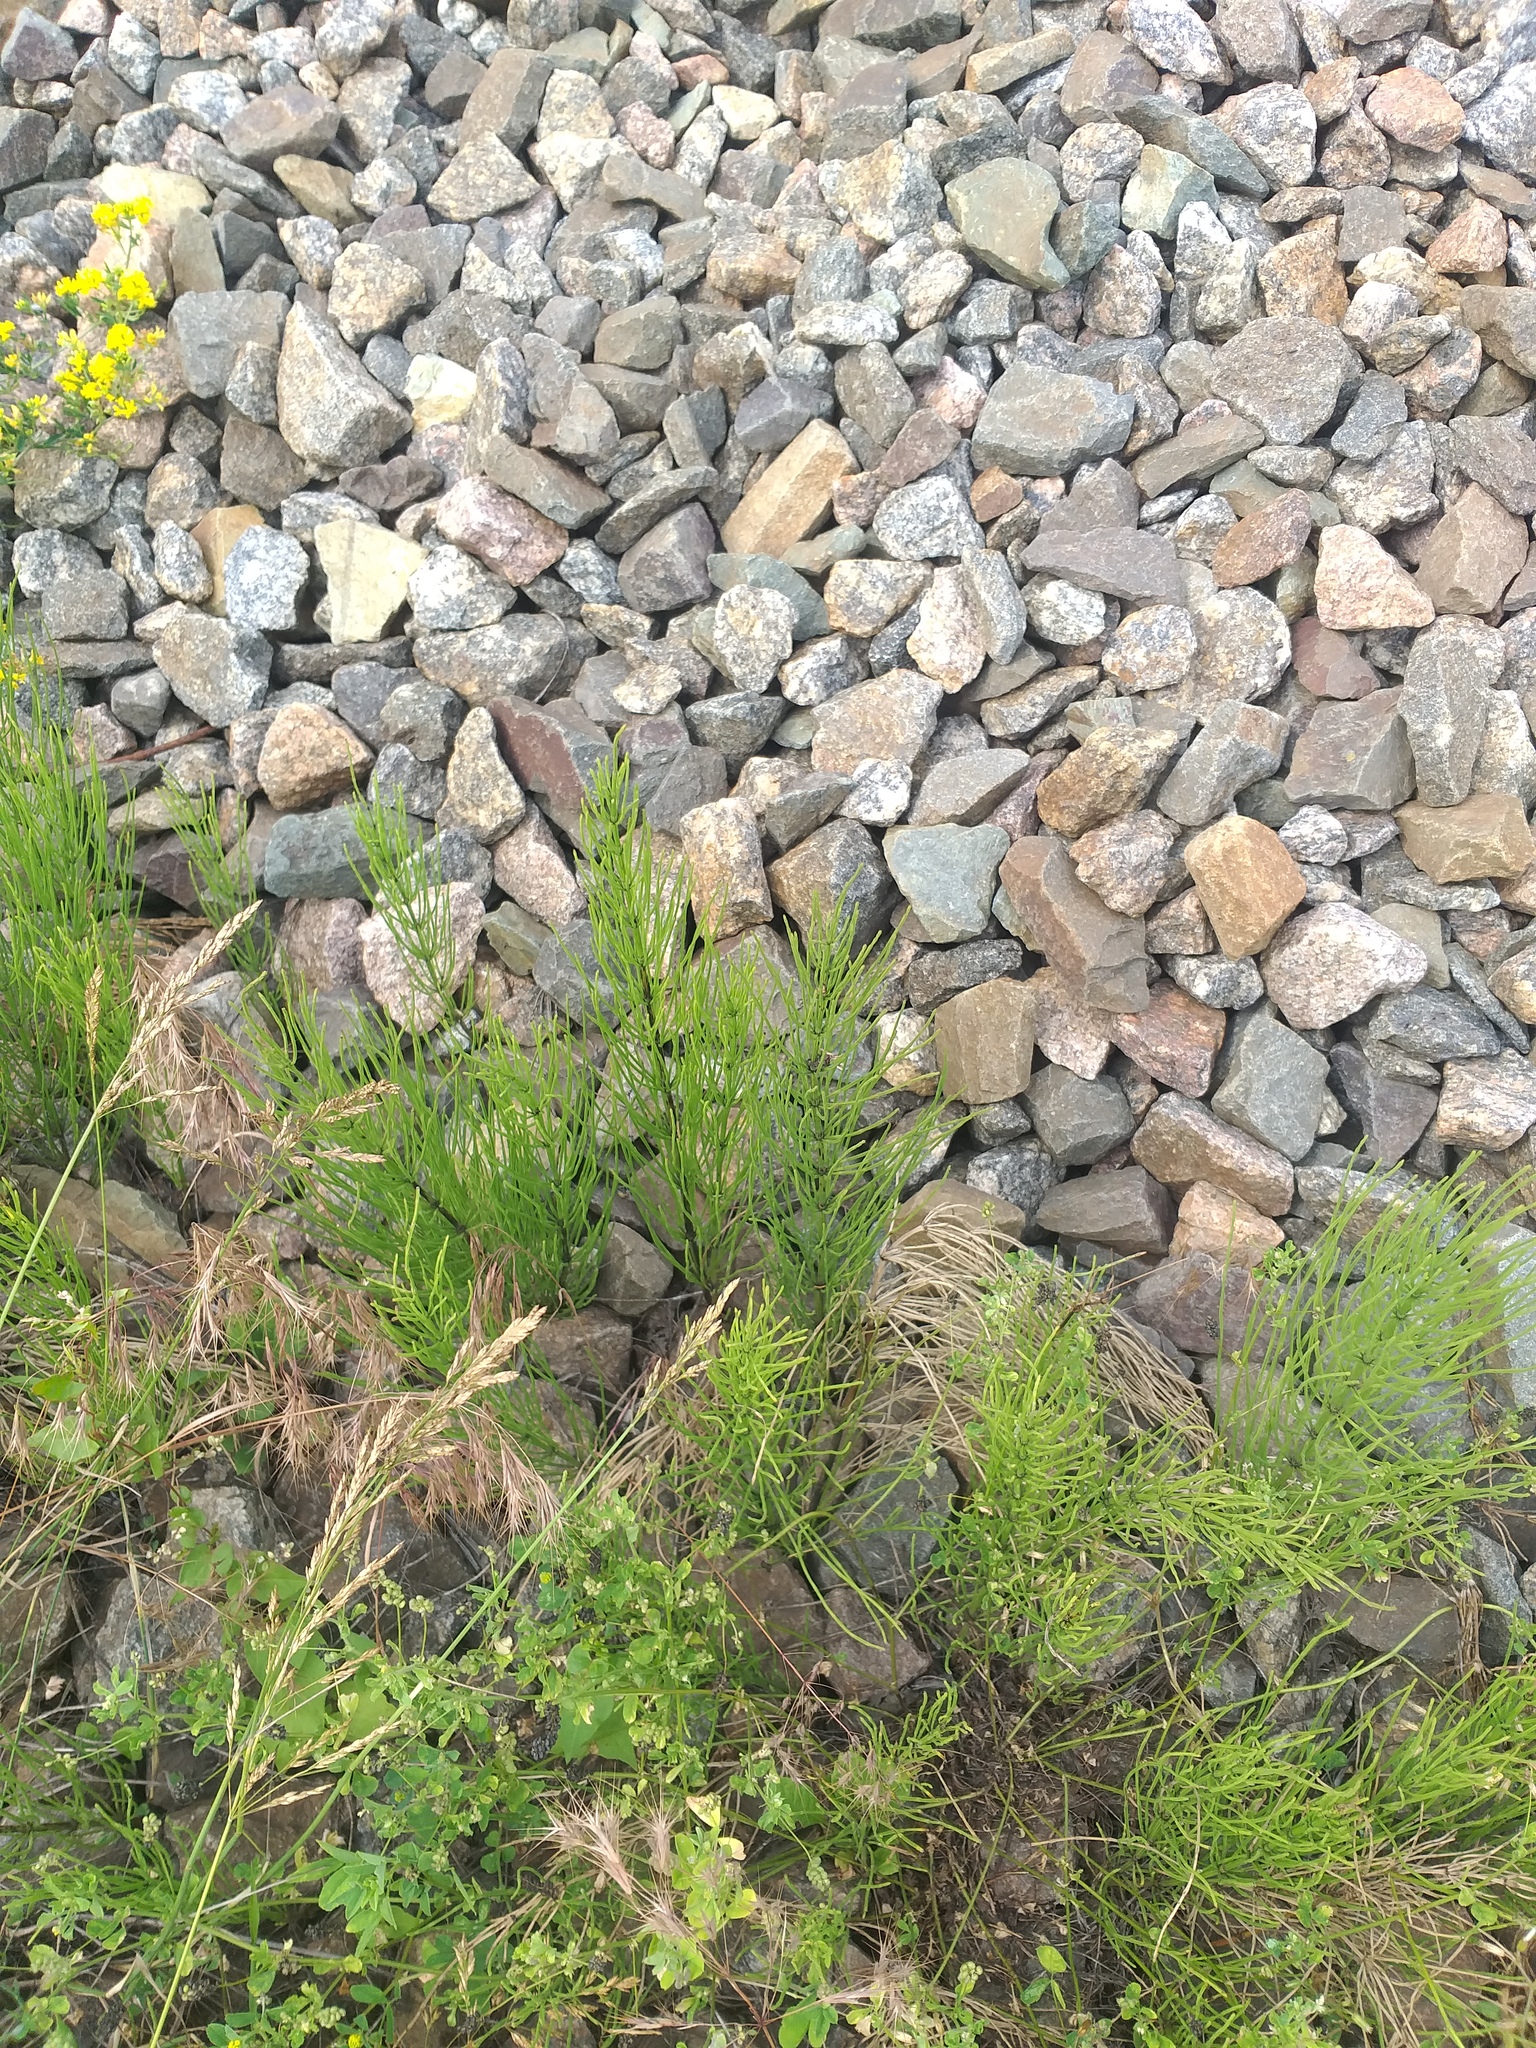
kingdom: Plantae
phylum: Tracheophyta
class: Polypodiopsida
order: Equisetales
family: Equisetaceae
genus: Equisetum
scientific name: Equisetum arvense
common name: Field horsetail
